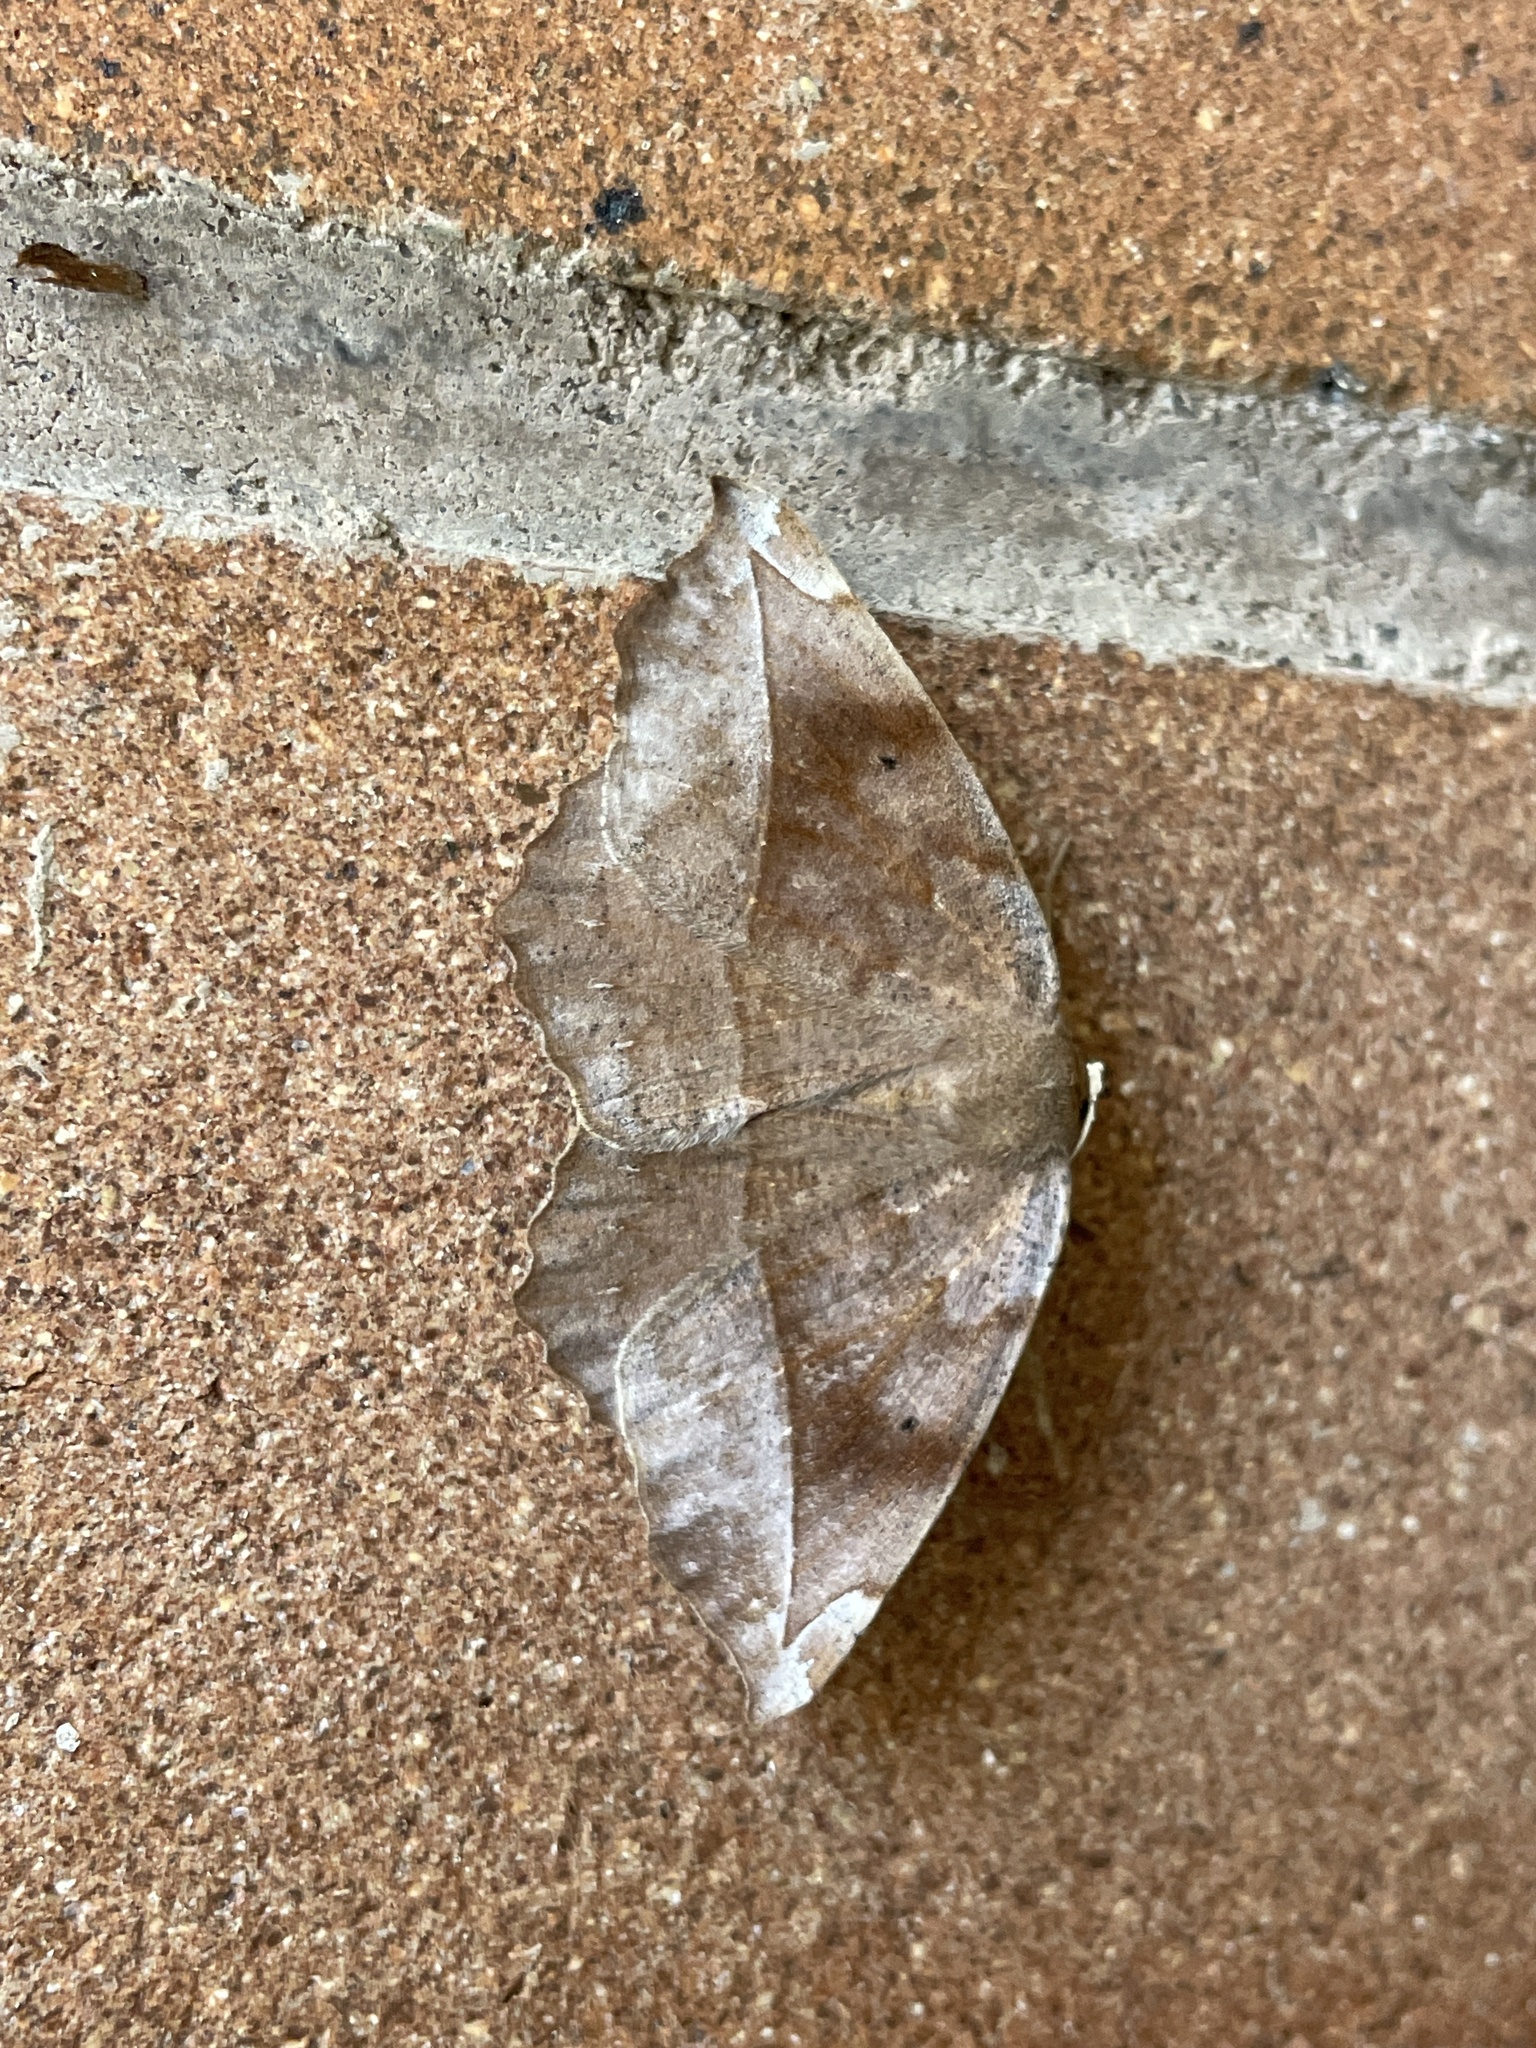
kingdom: Animalia
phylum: Arthropoda
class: Insecta
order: Lepidoptera
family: Geometridae
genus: Eutrapela
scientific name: Eutrapela clemataria
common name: Curved-toothed geometer
